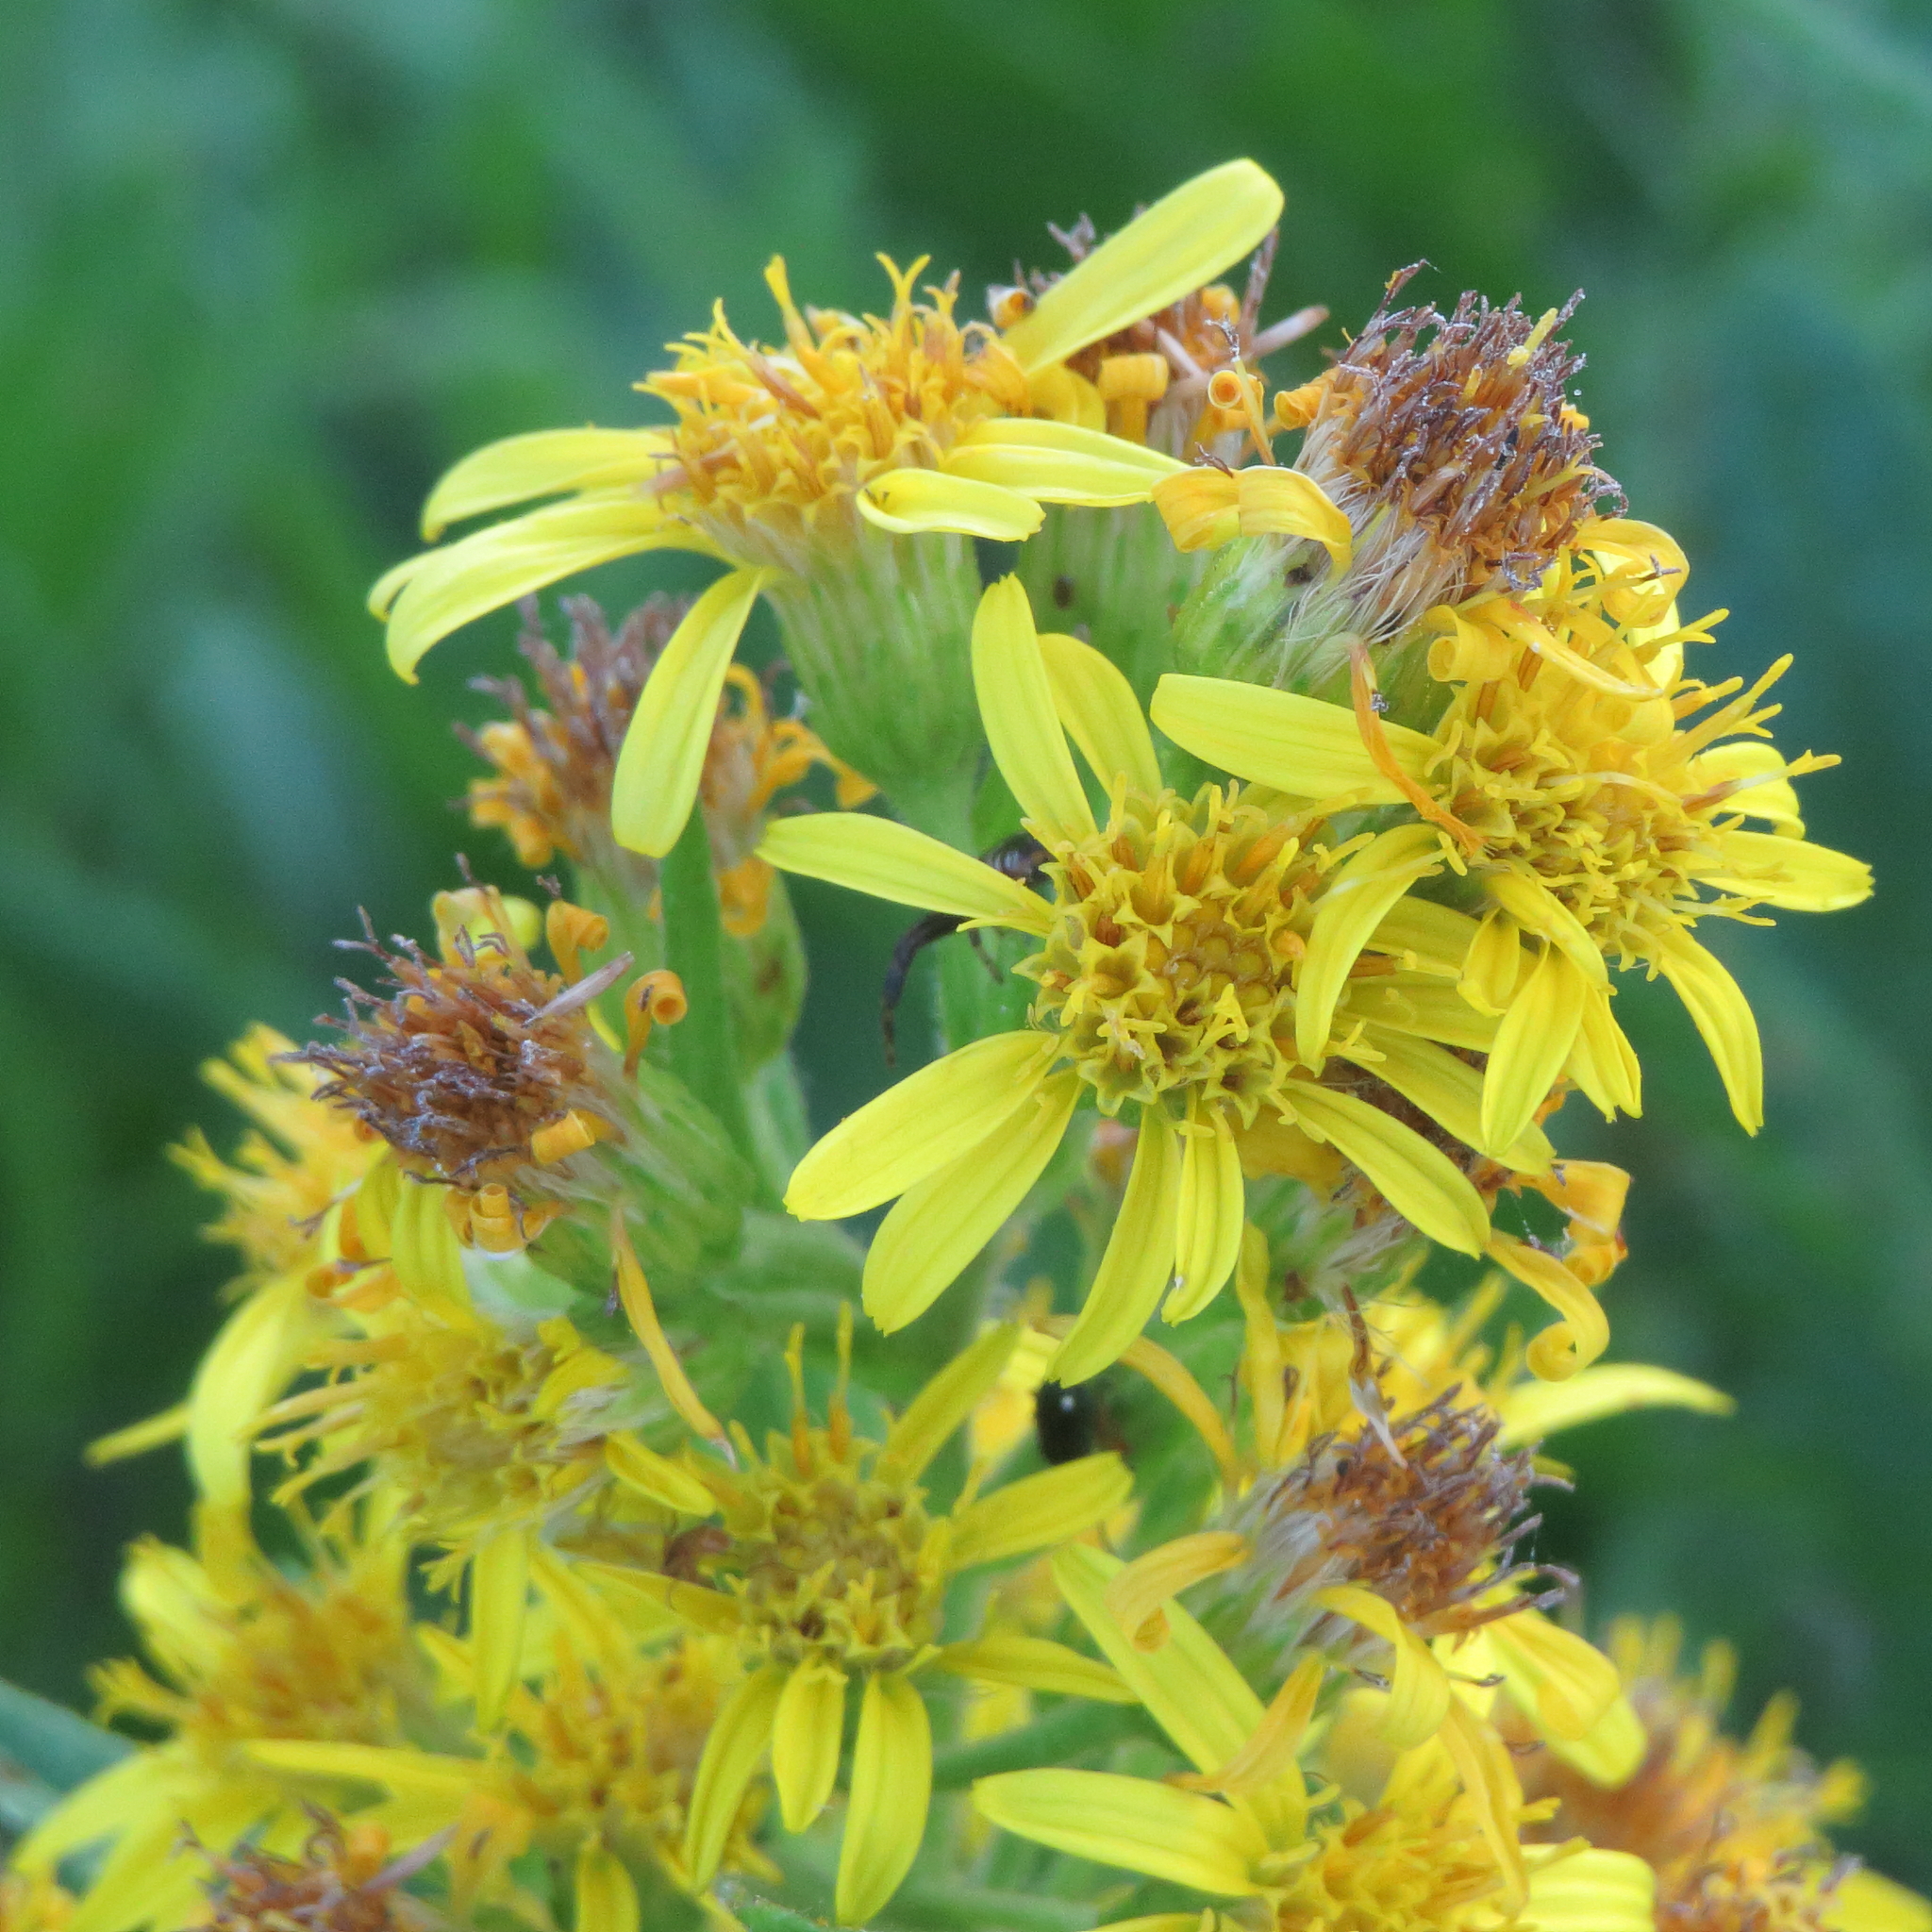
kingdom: Plantae
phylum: Tracheophyta
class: Magnoliopsida
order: Asterales
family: Asteraceae
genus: Dittrichia
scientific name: Dittrichia viscosa
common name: Woody fleabane
